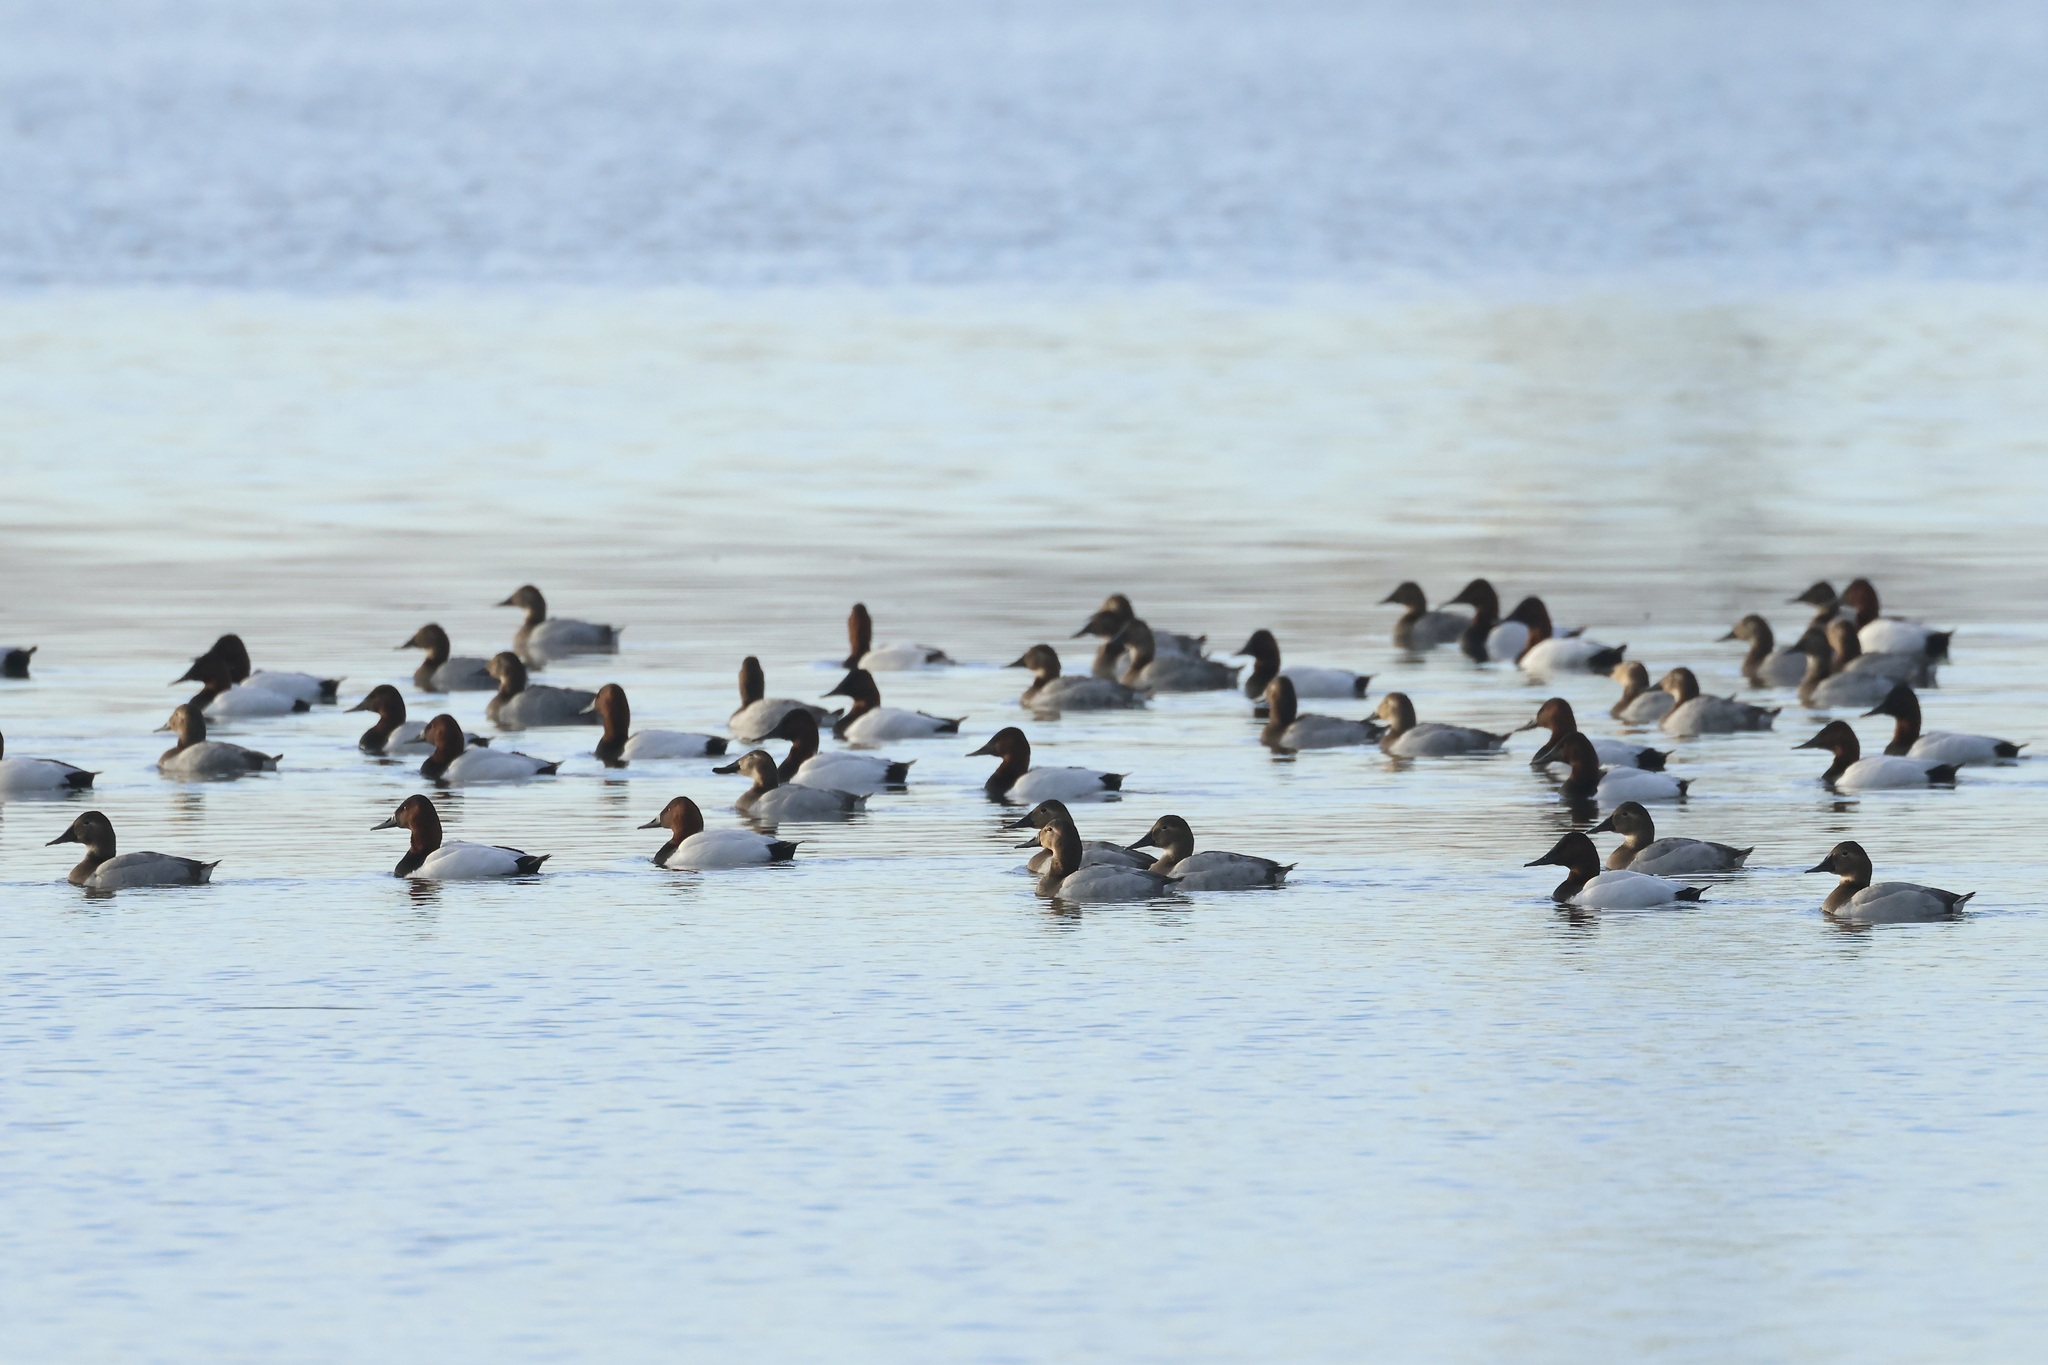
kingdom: Animalia
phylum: Chordata
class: Aves
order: Anseriformes
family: Anatidae
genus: Aythya
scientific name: Aythya valisineria
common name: Canvasback
